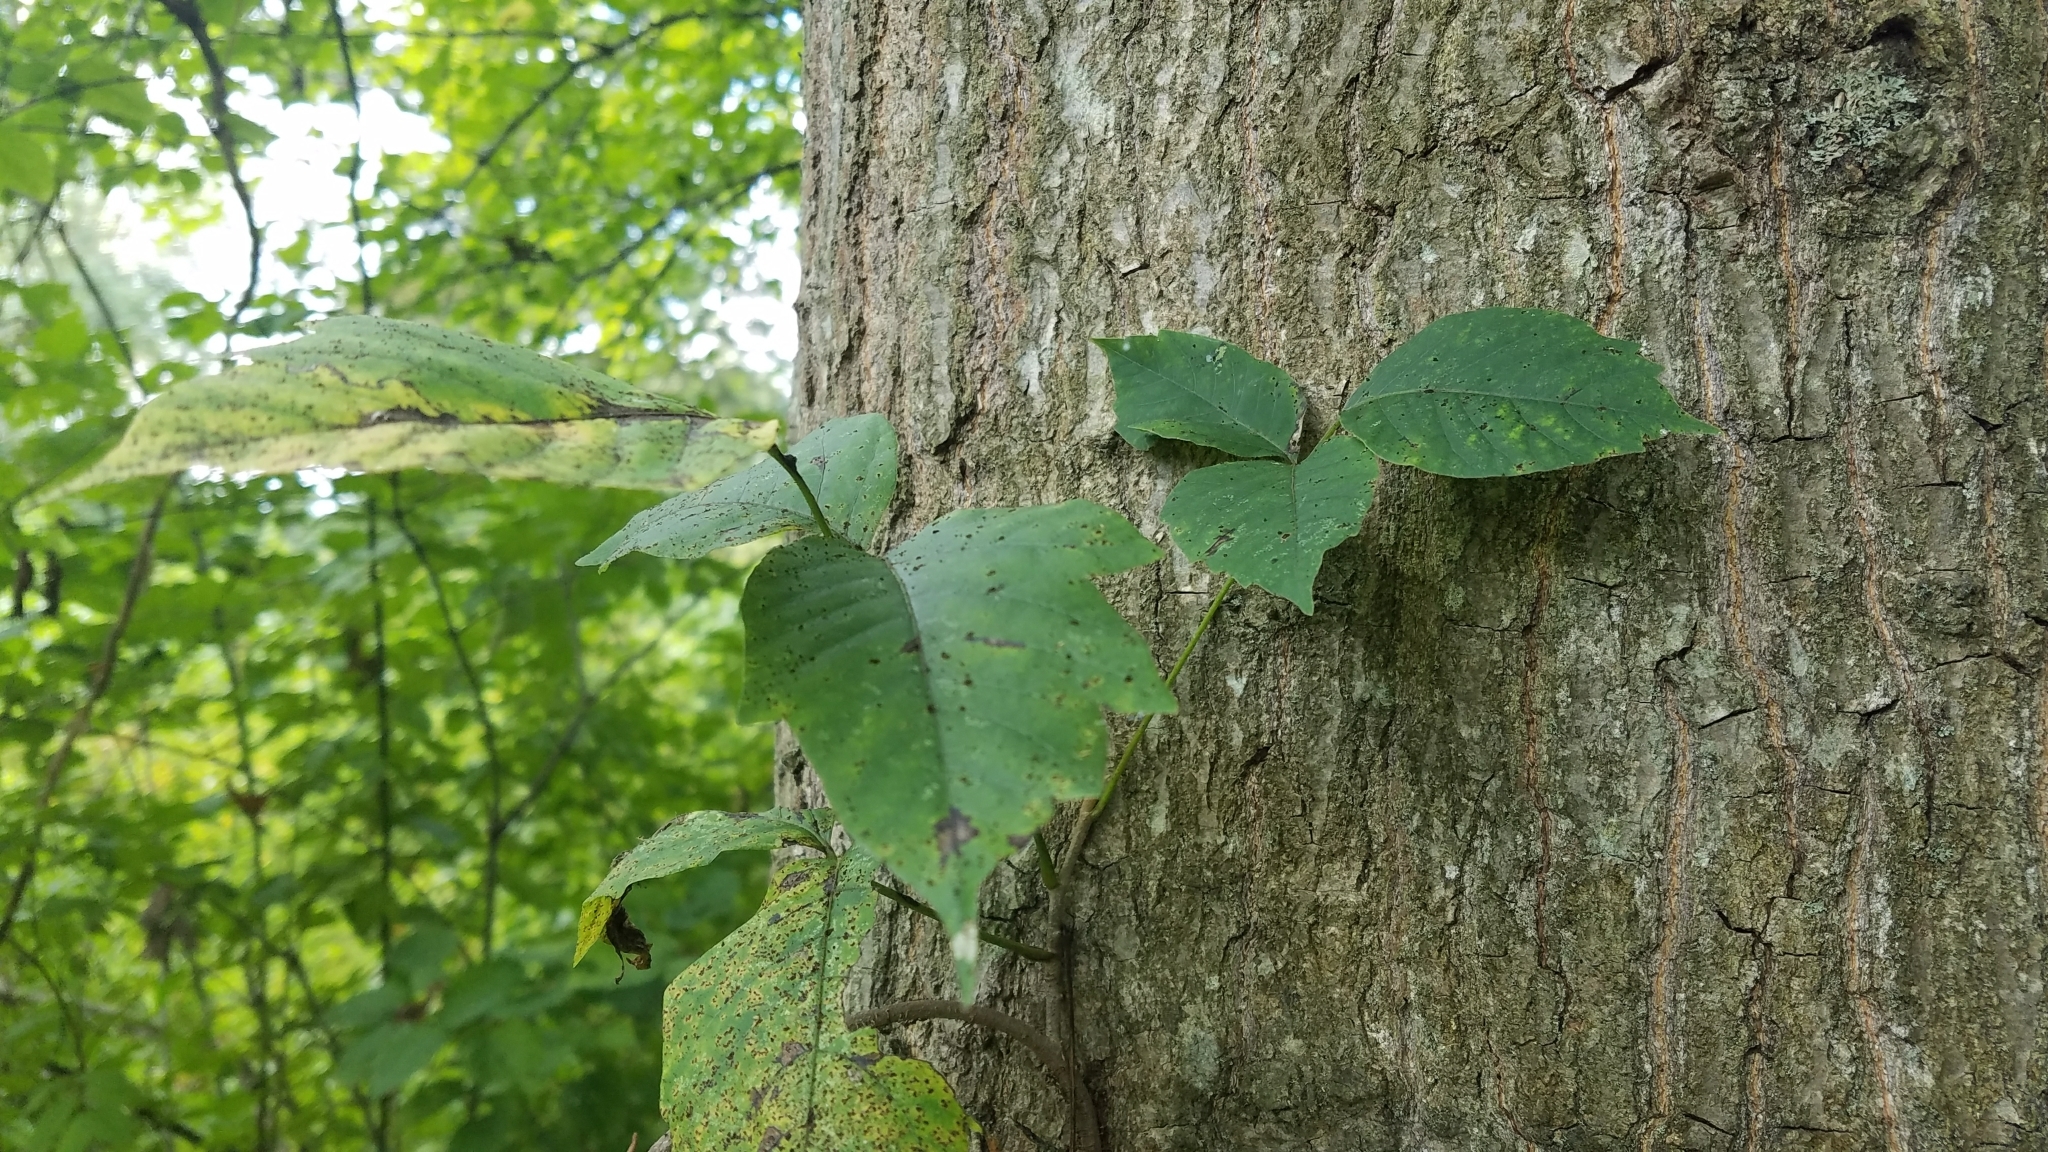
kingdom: Plantae
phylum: Tracheophyta
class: Magnoliopsida
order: Sapindales
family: Anacardiaceae
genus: Toxicodendron
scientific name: Toxicodendron radicans
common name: Poison ivy
